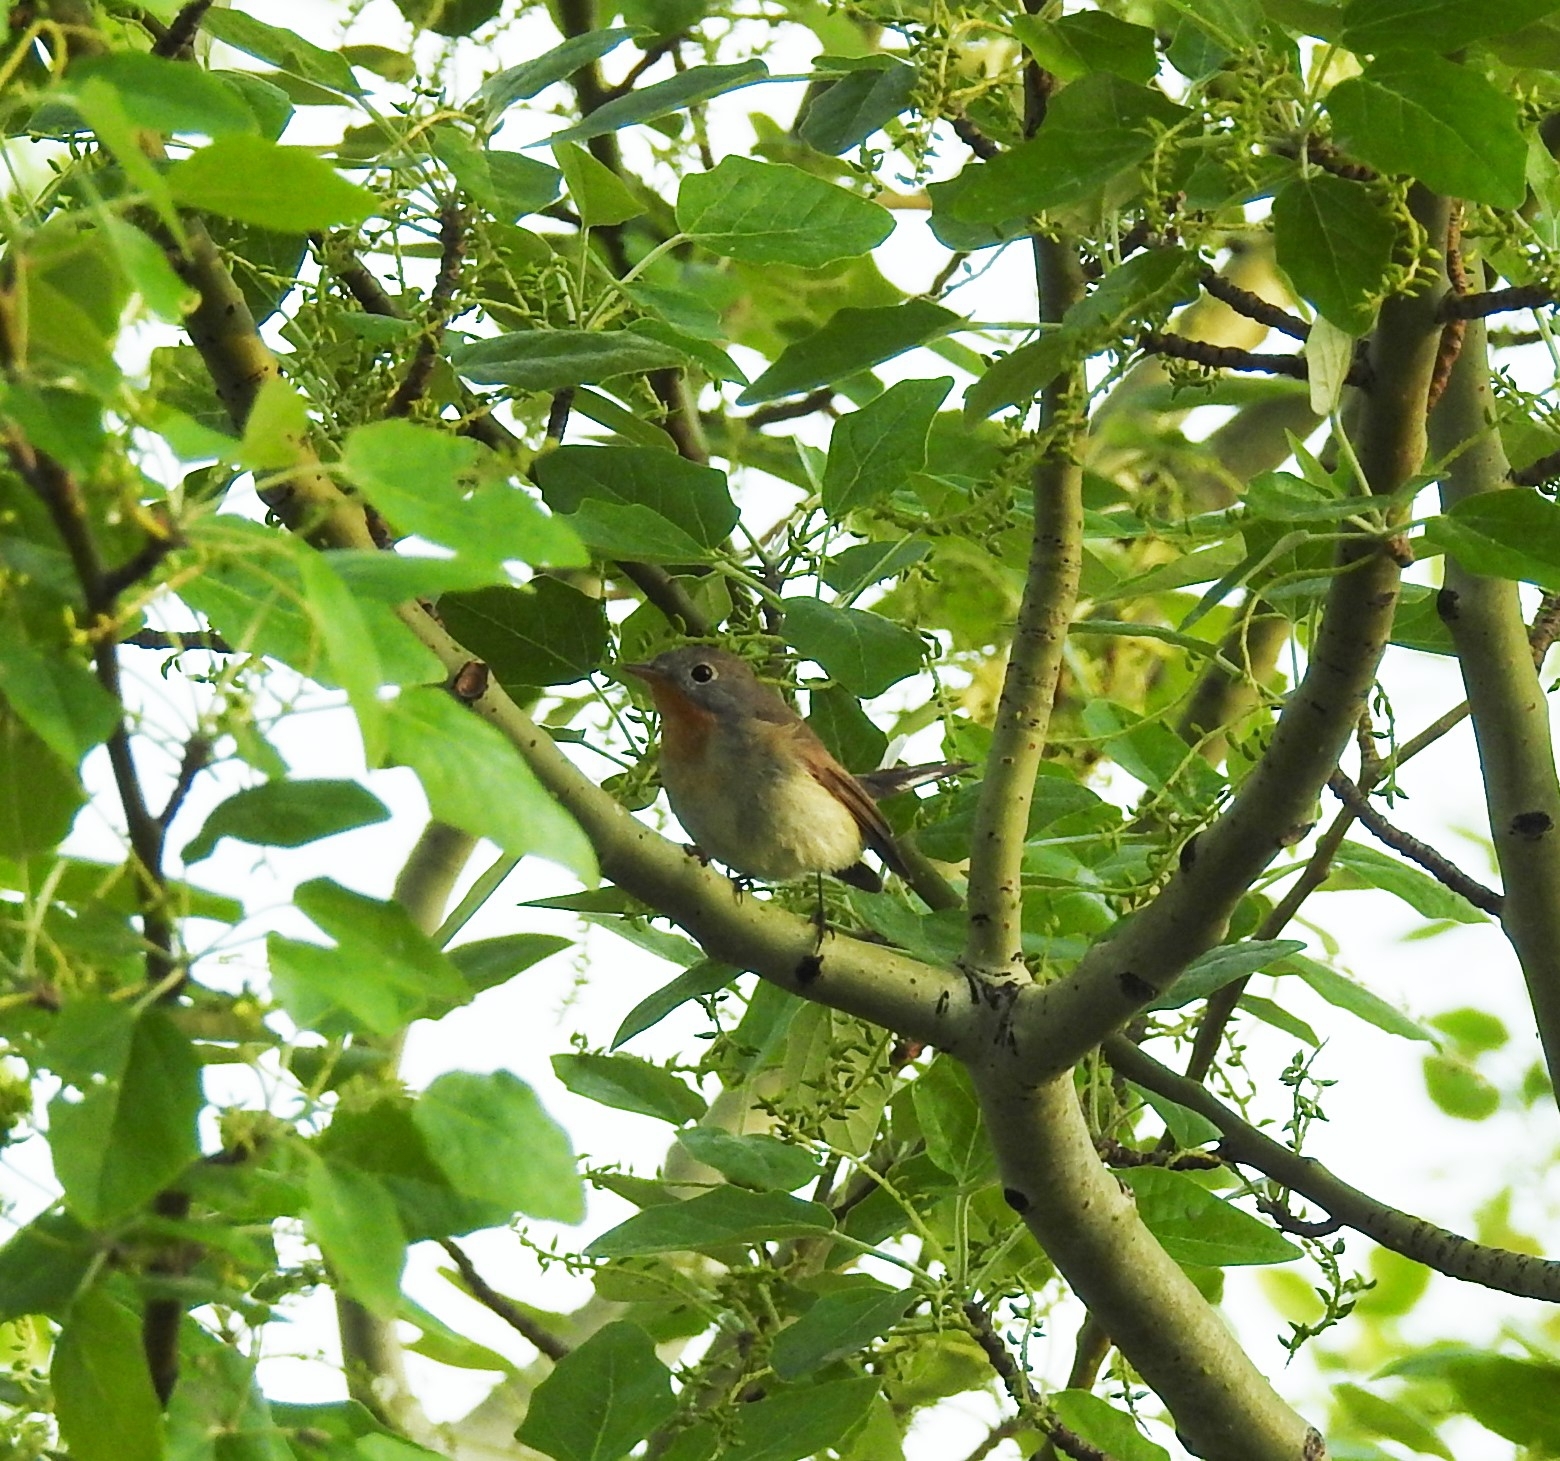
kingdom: Animalia
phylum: Chordata
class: Aves
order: Passeriformes
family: Muscicapidae
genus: Ficedula
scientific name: Ficedula parva
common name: Red-breasted flycatcher
